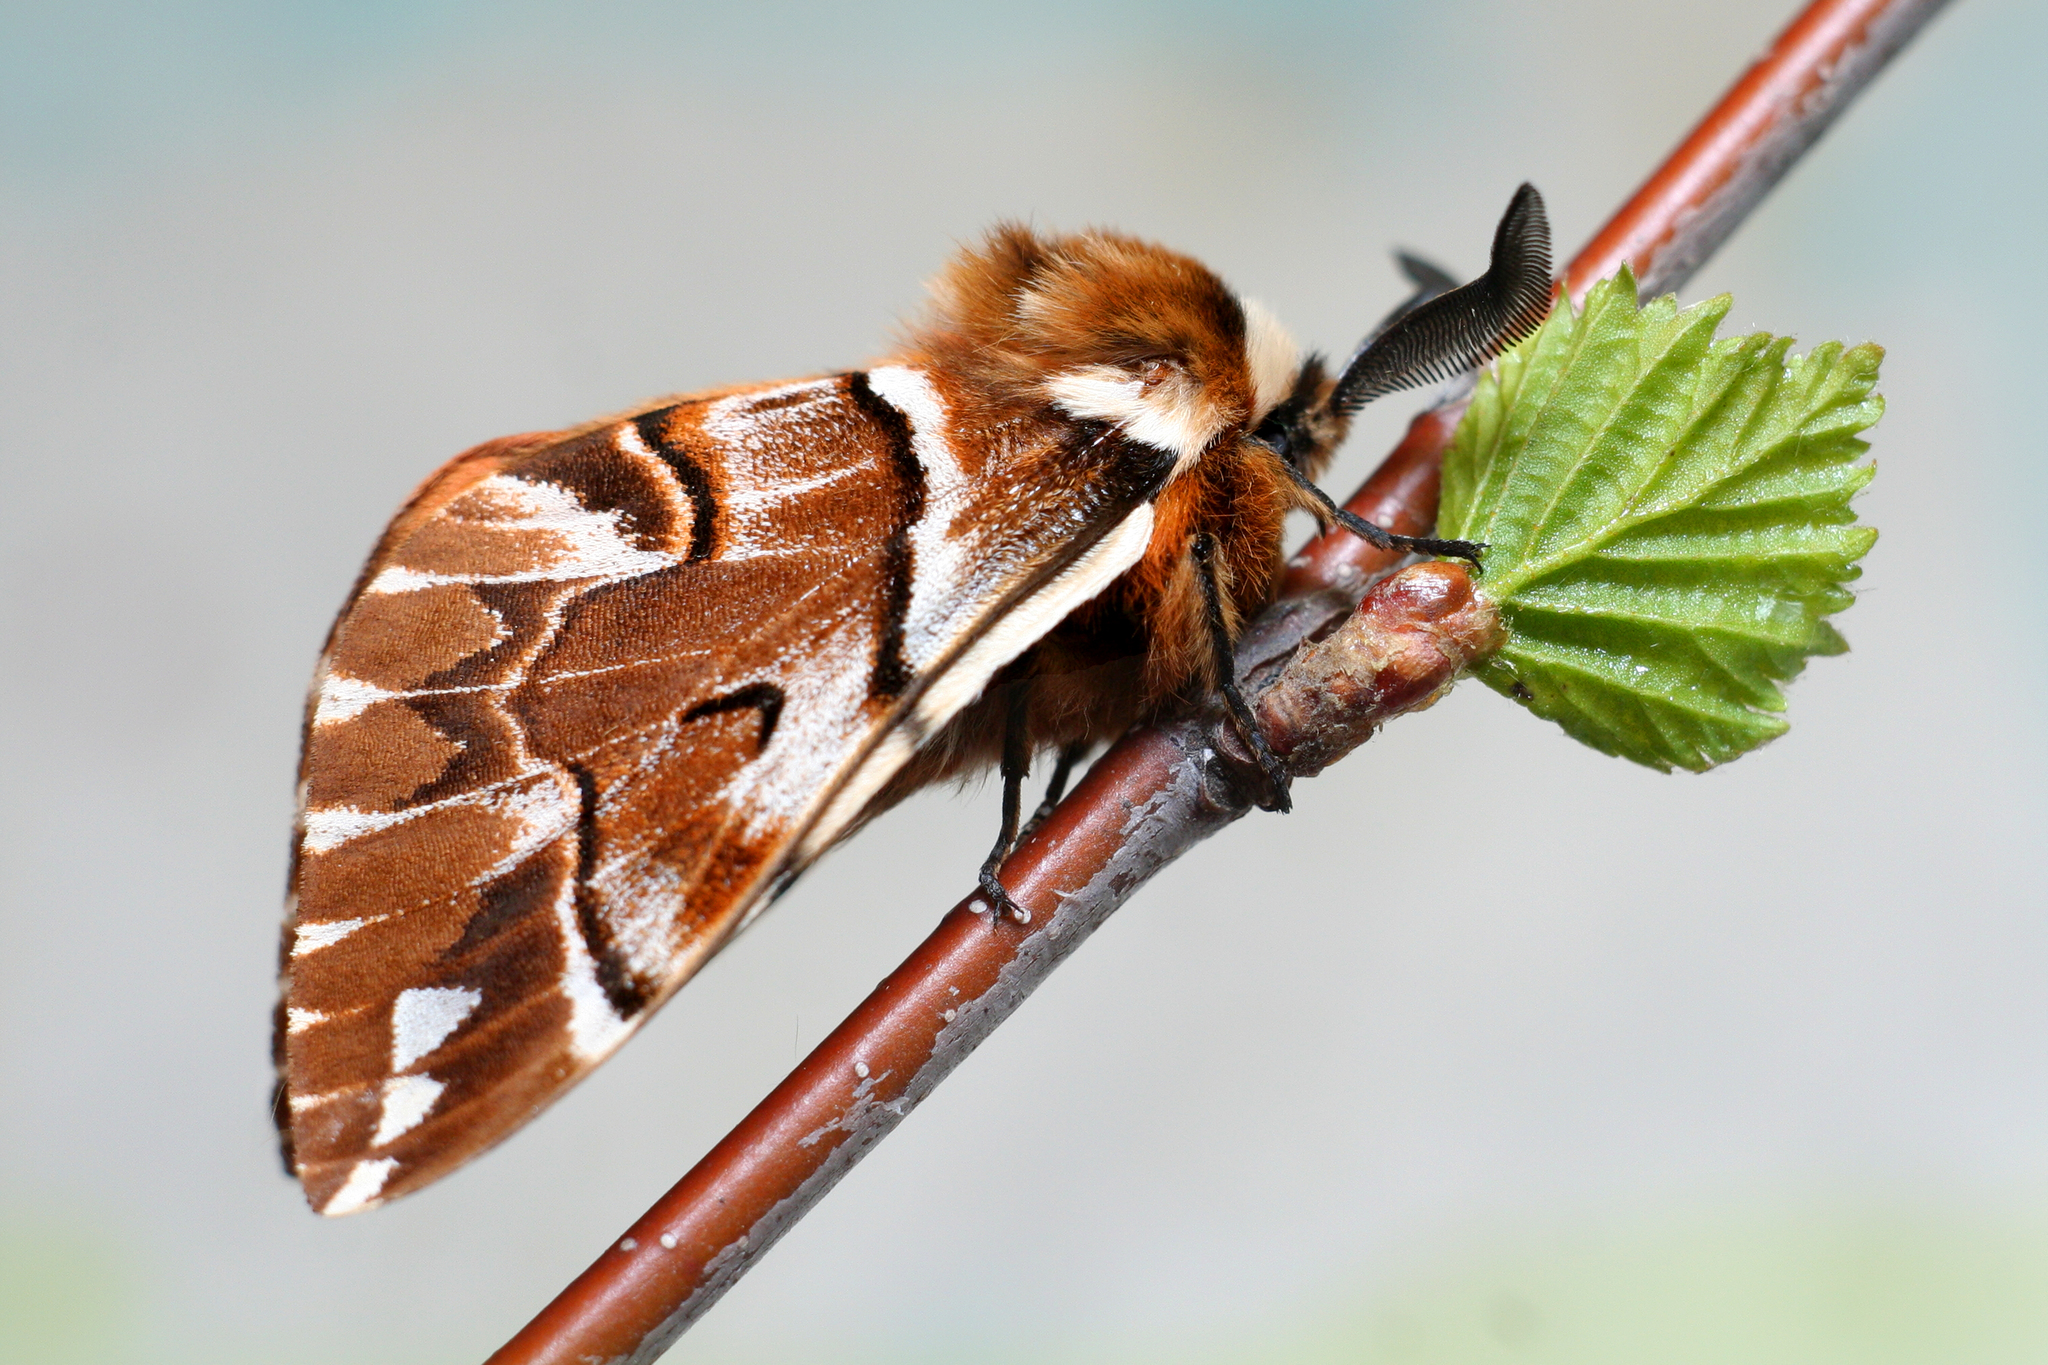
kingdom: Animalia
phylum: Arthropoda
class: Insecta
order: Lepidoptera
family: Endromidae
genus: Endromis
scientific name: Endromis versicolora
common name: Kentish glory
